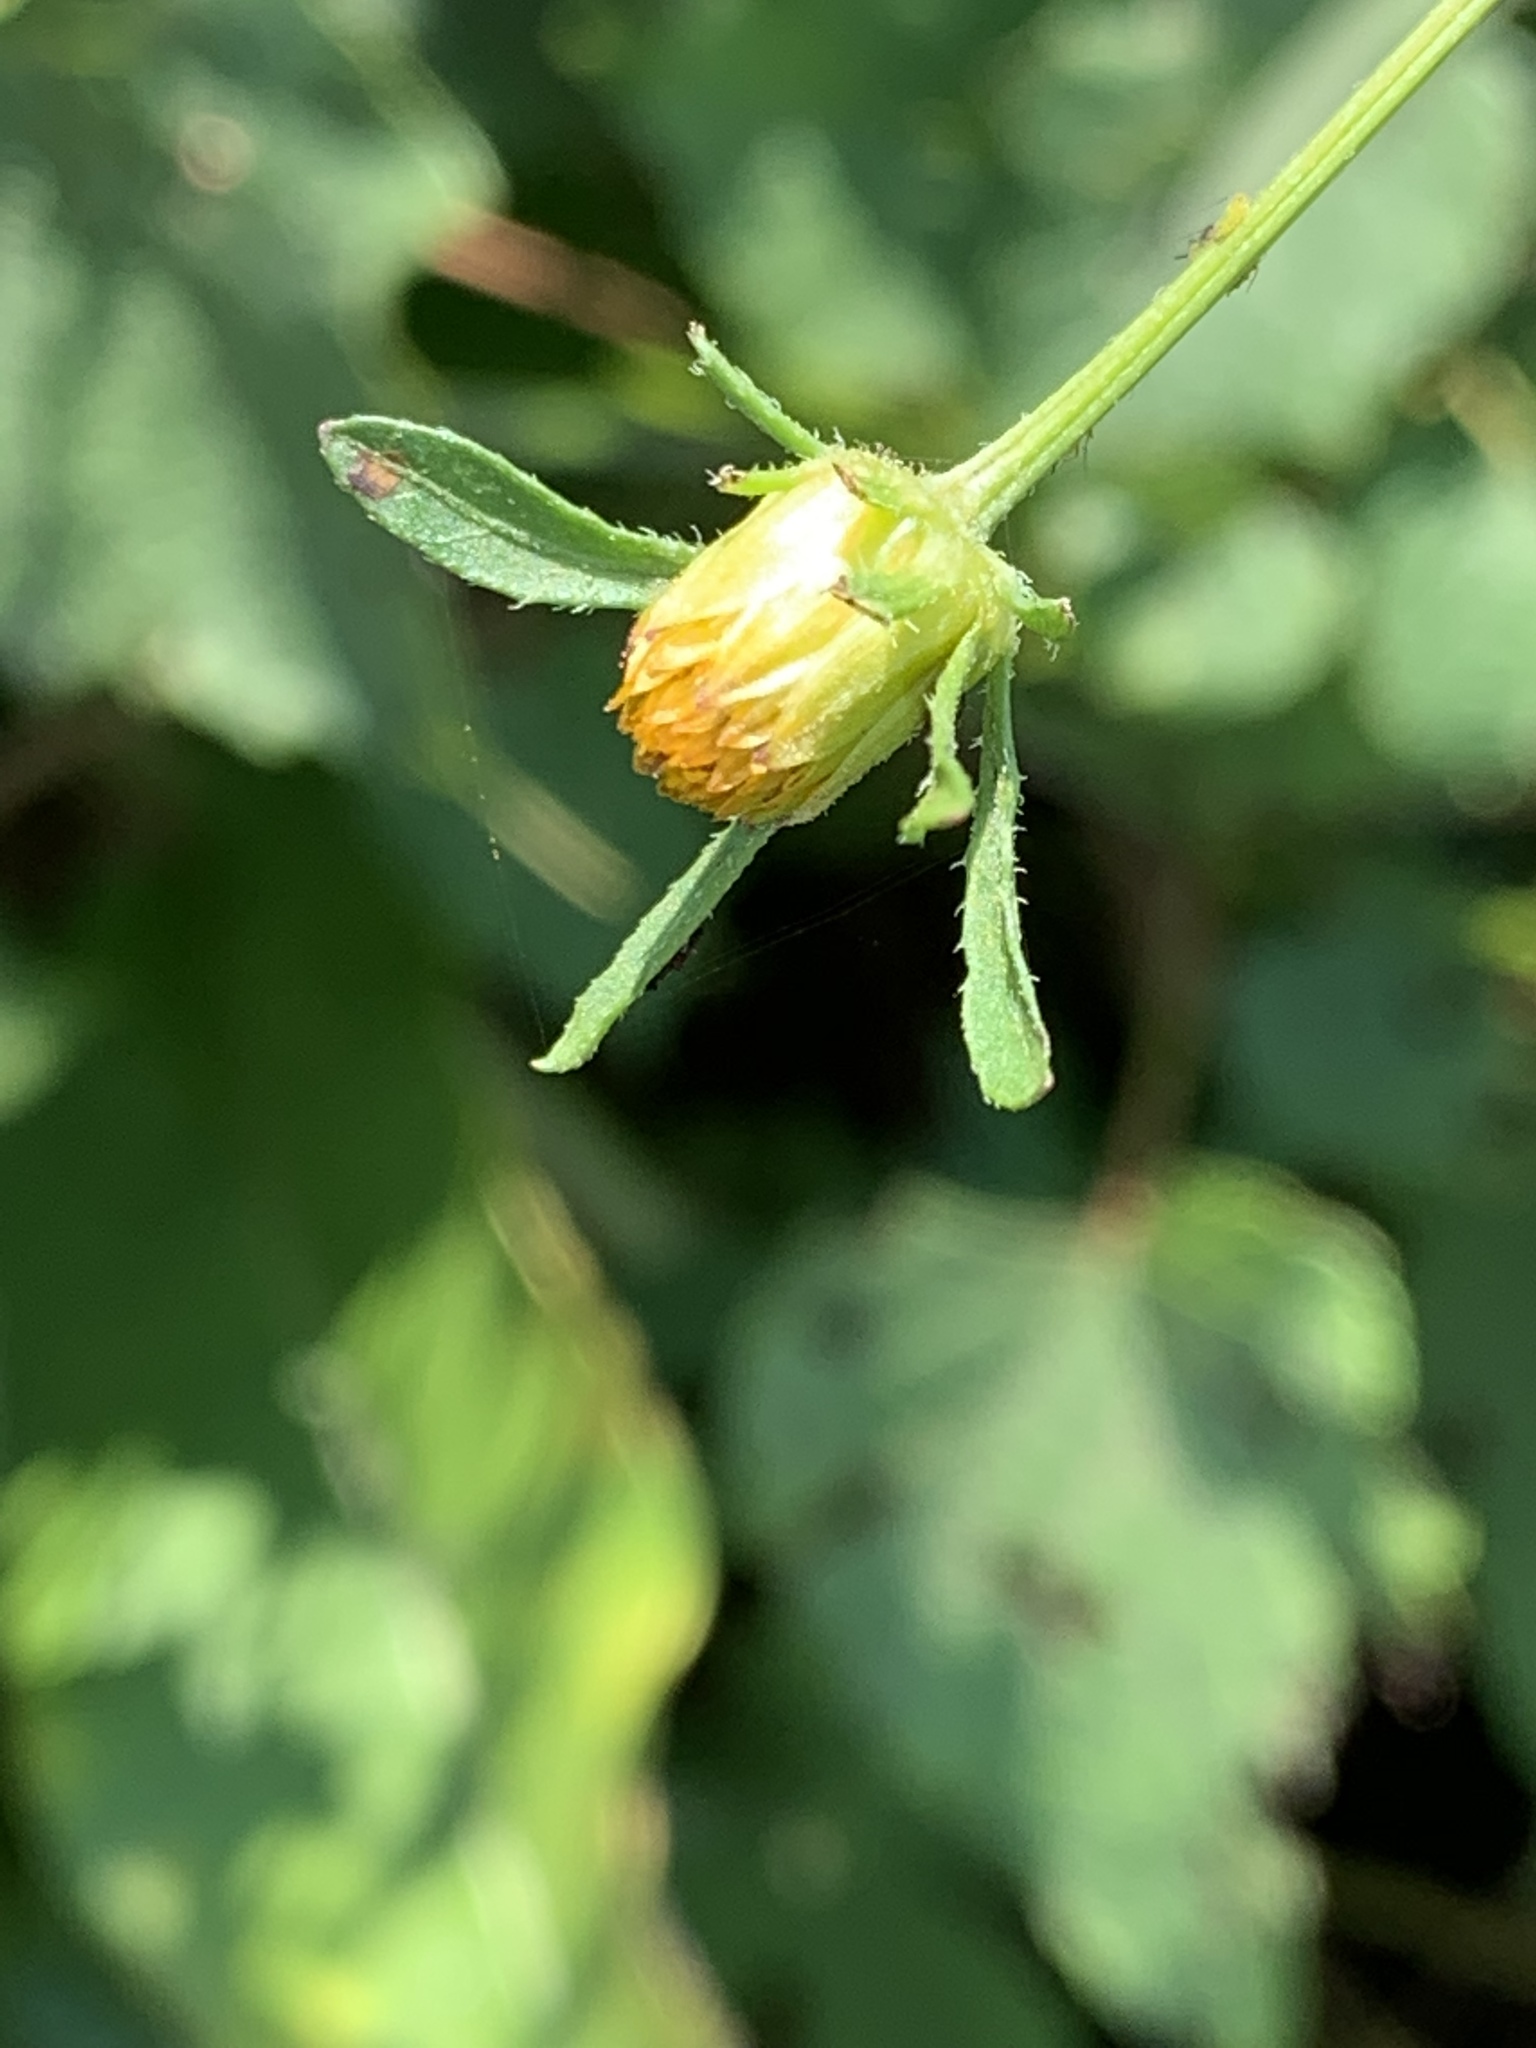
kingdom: Plantae
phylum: Tracheophyta
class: Magnoliopsida
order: Asterales
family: Asteraceae
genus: Bidens
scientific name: Bidens frondosa
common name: Beggarticks
